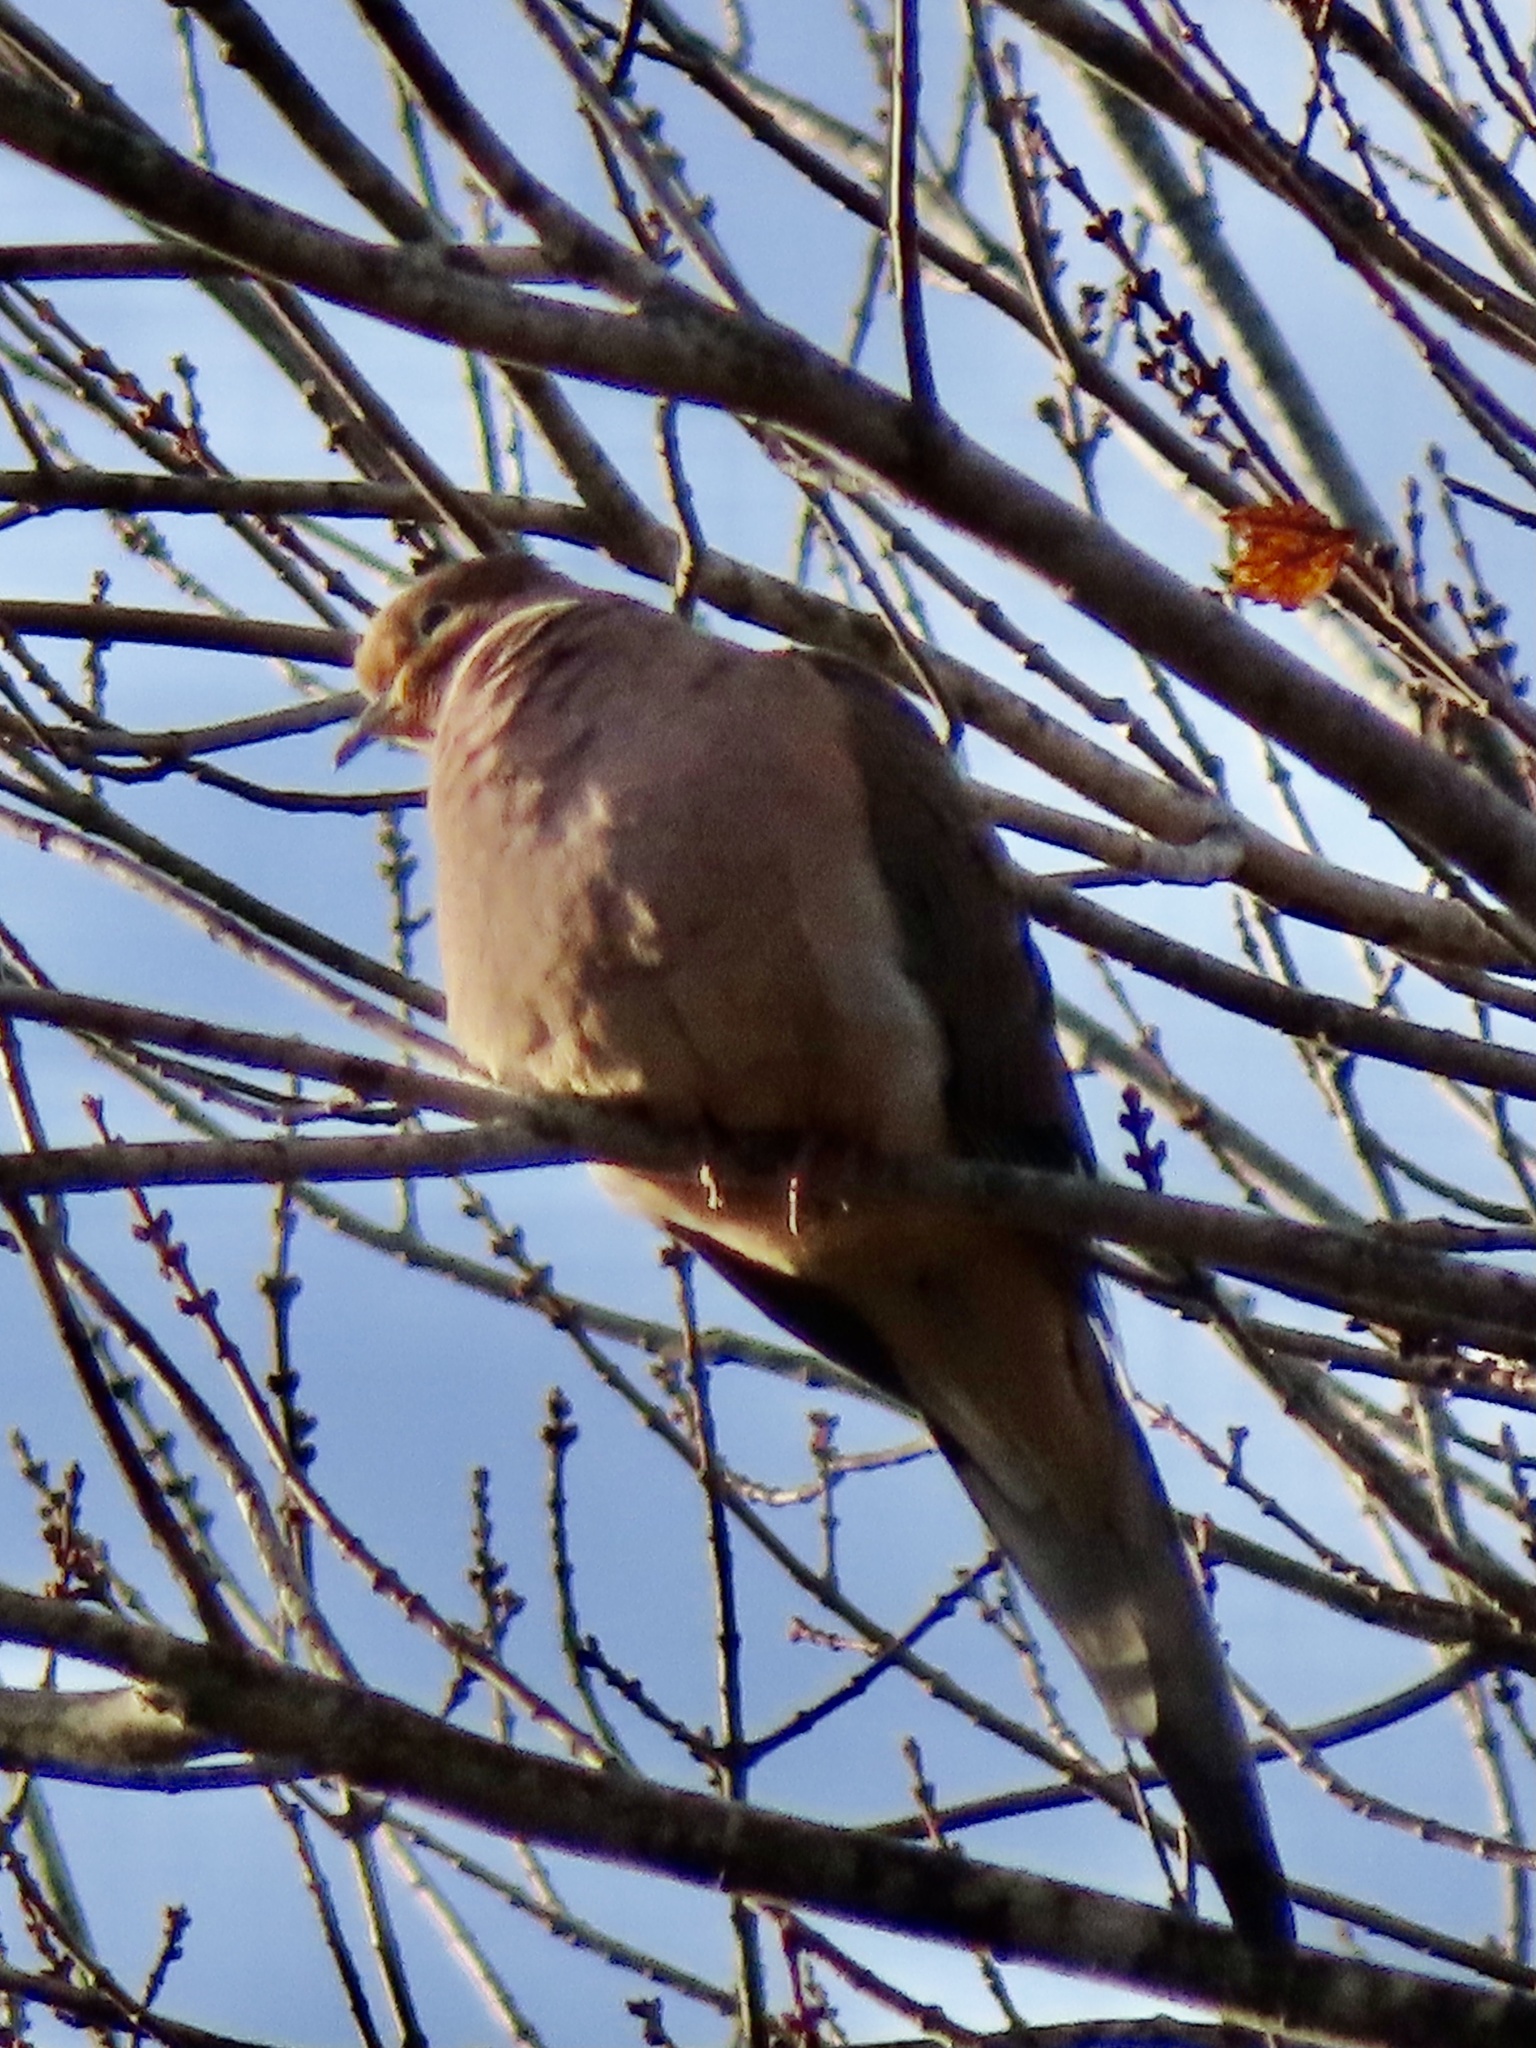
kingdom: Animalia
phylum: Chordata
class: Aves
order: Columbiformes
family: Columbidae
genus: Zenaida
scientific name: Zenaida macroura
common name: Mourning dove
